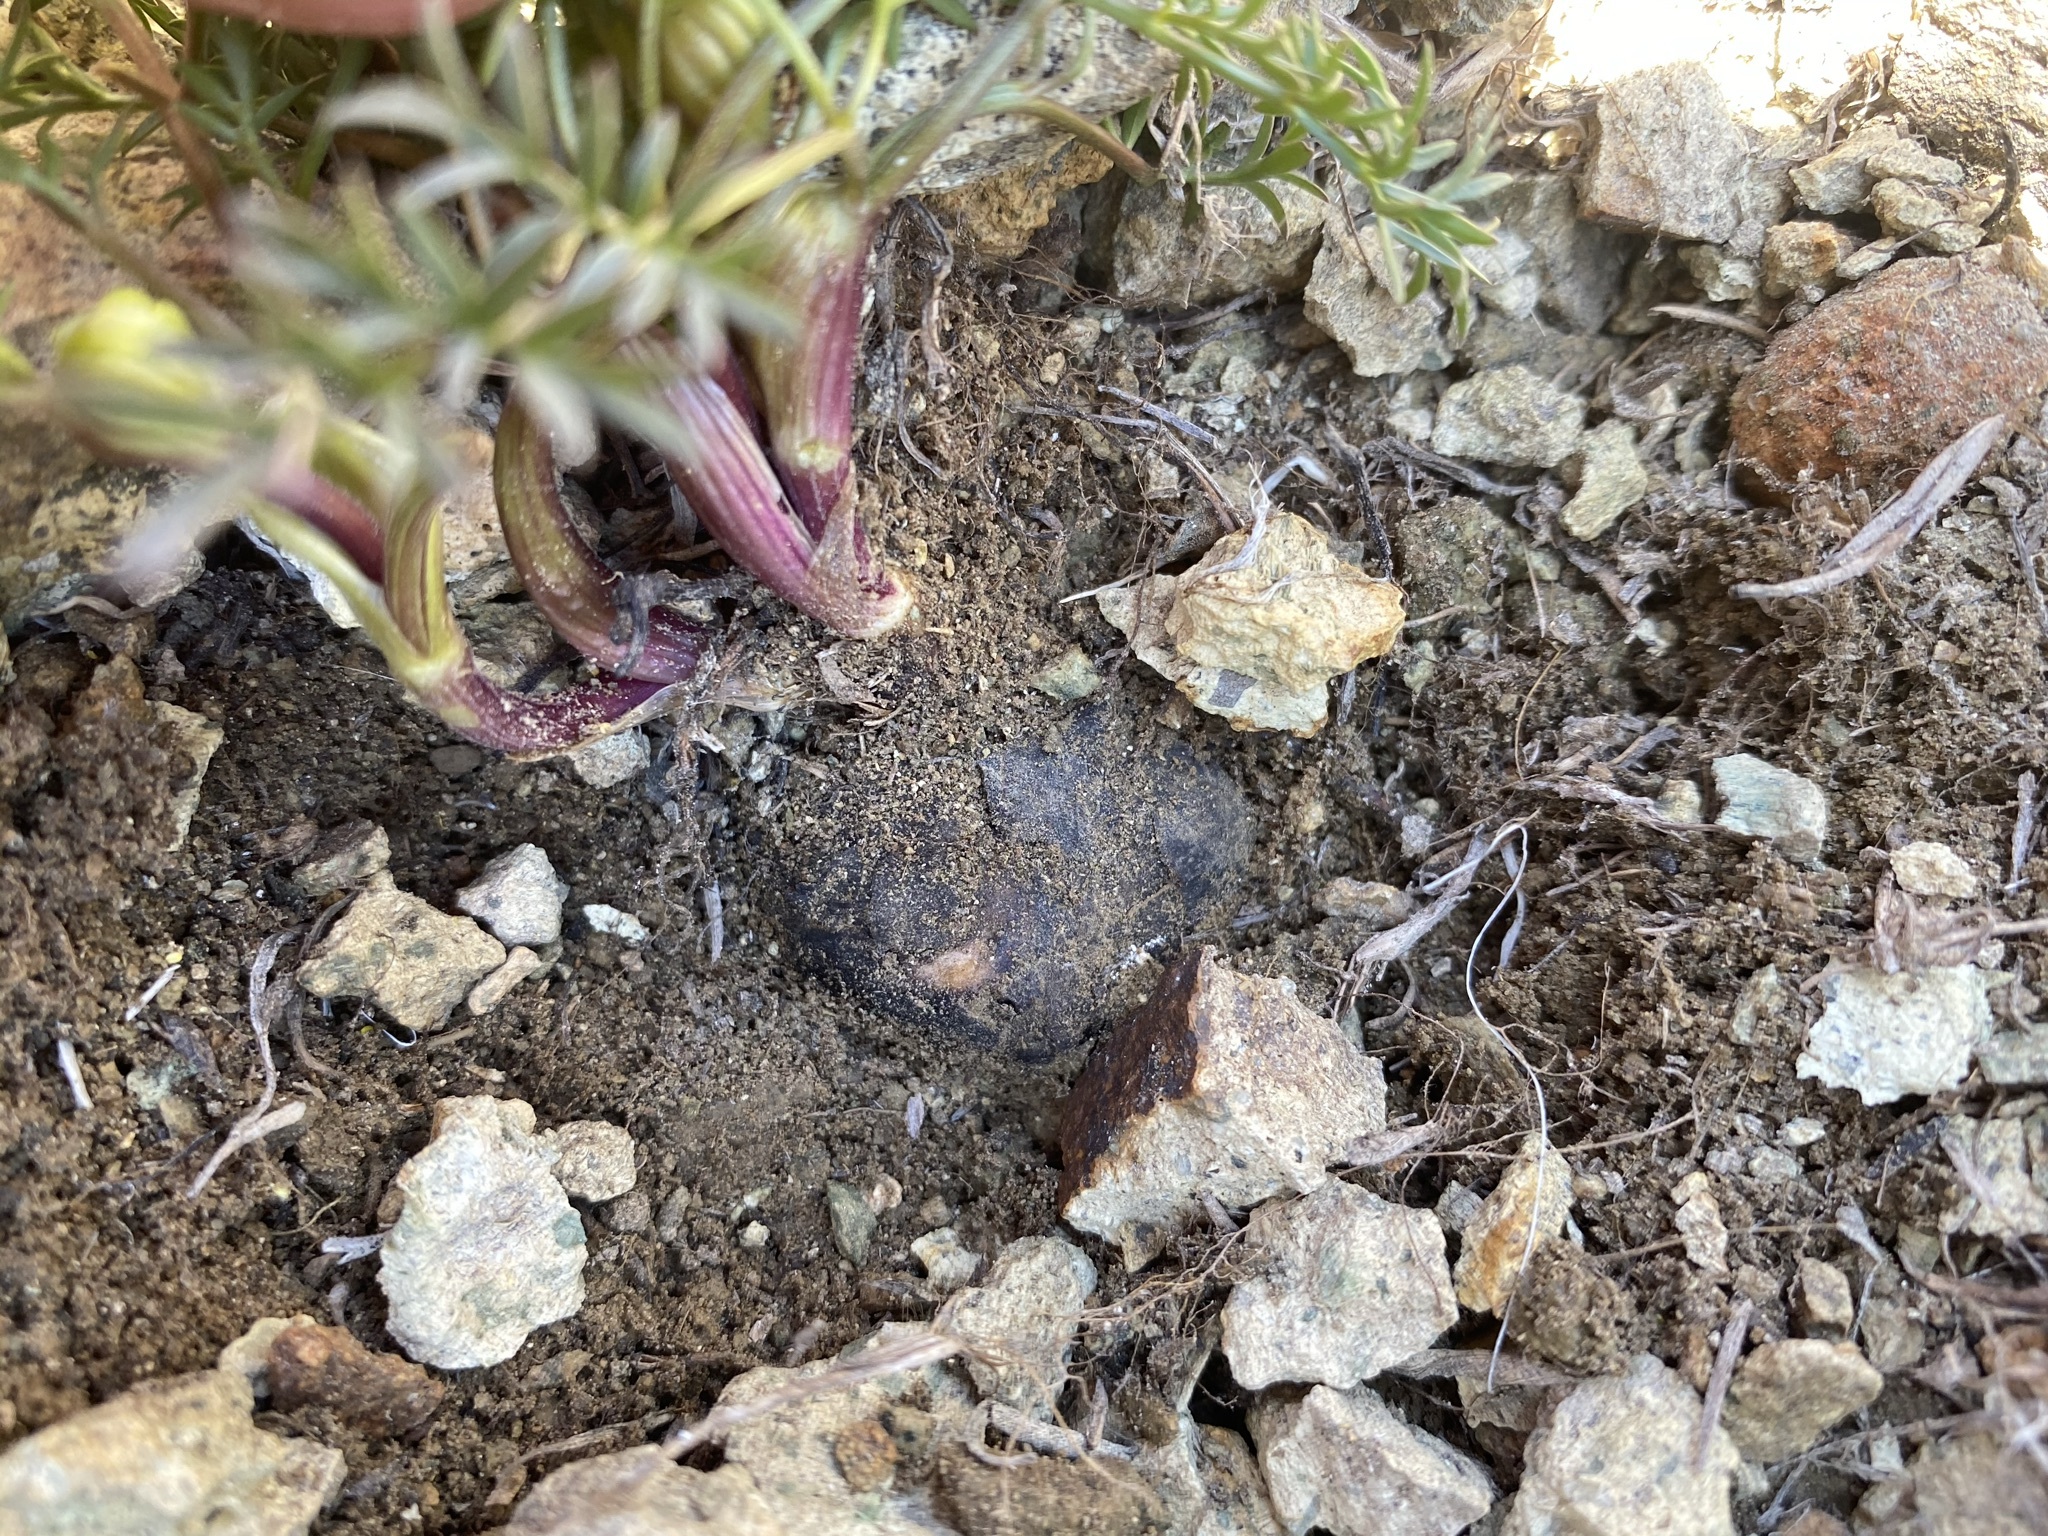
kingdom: Plantae
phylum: Tracheophyta
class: Magnoliopsida
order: Apiales
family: Apiaceae
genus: Lomatium
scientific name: Lomatium cous
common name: Biscuit-root
